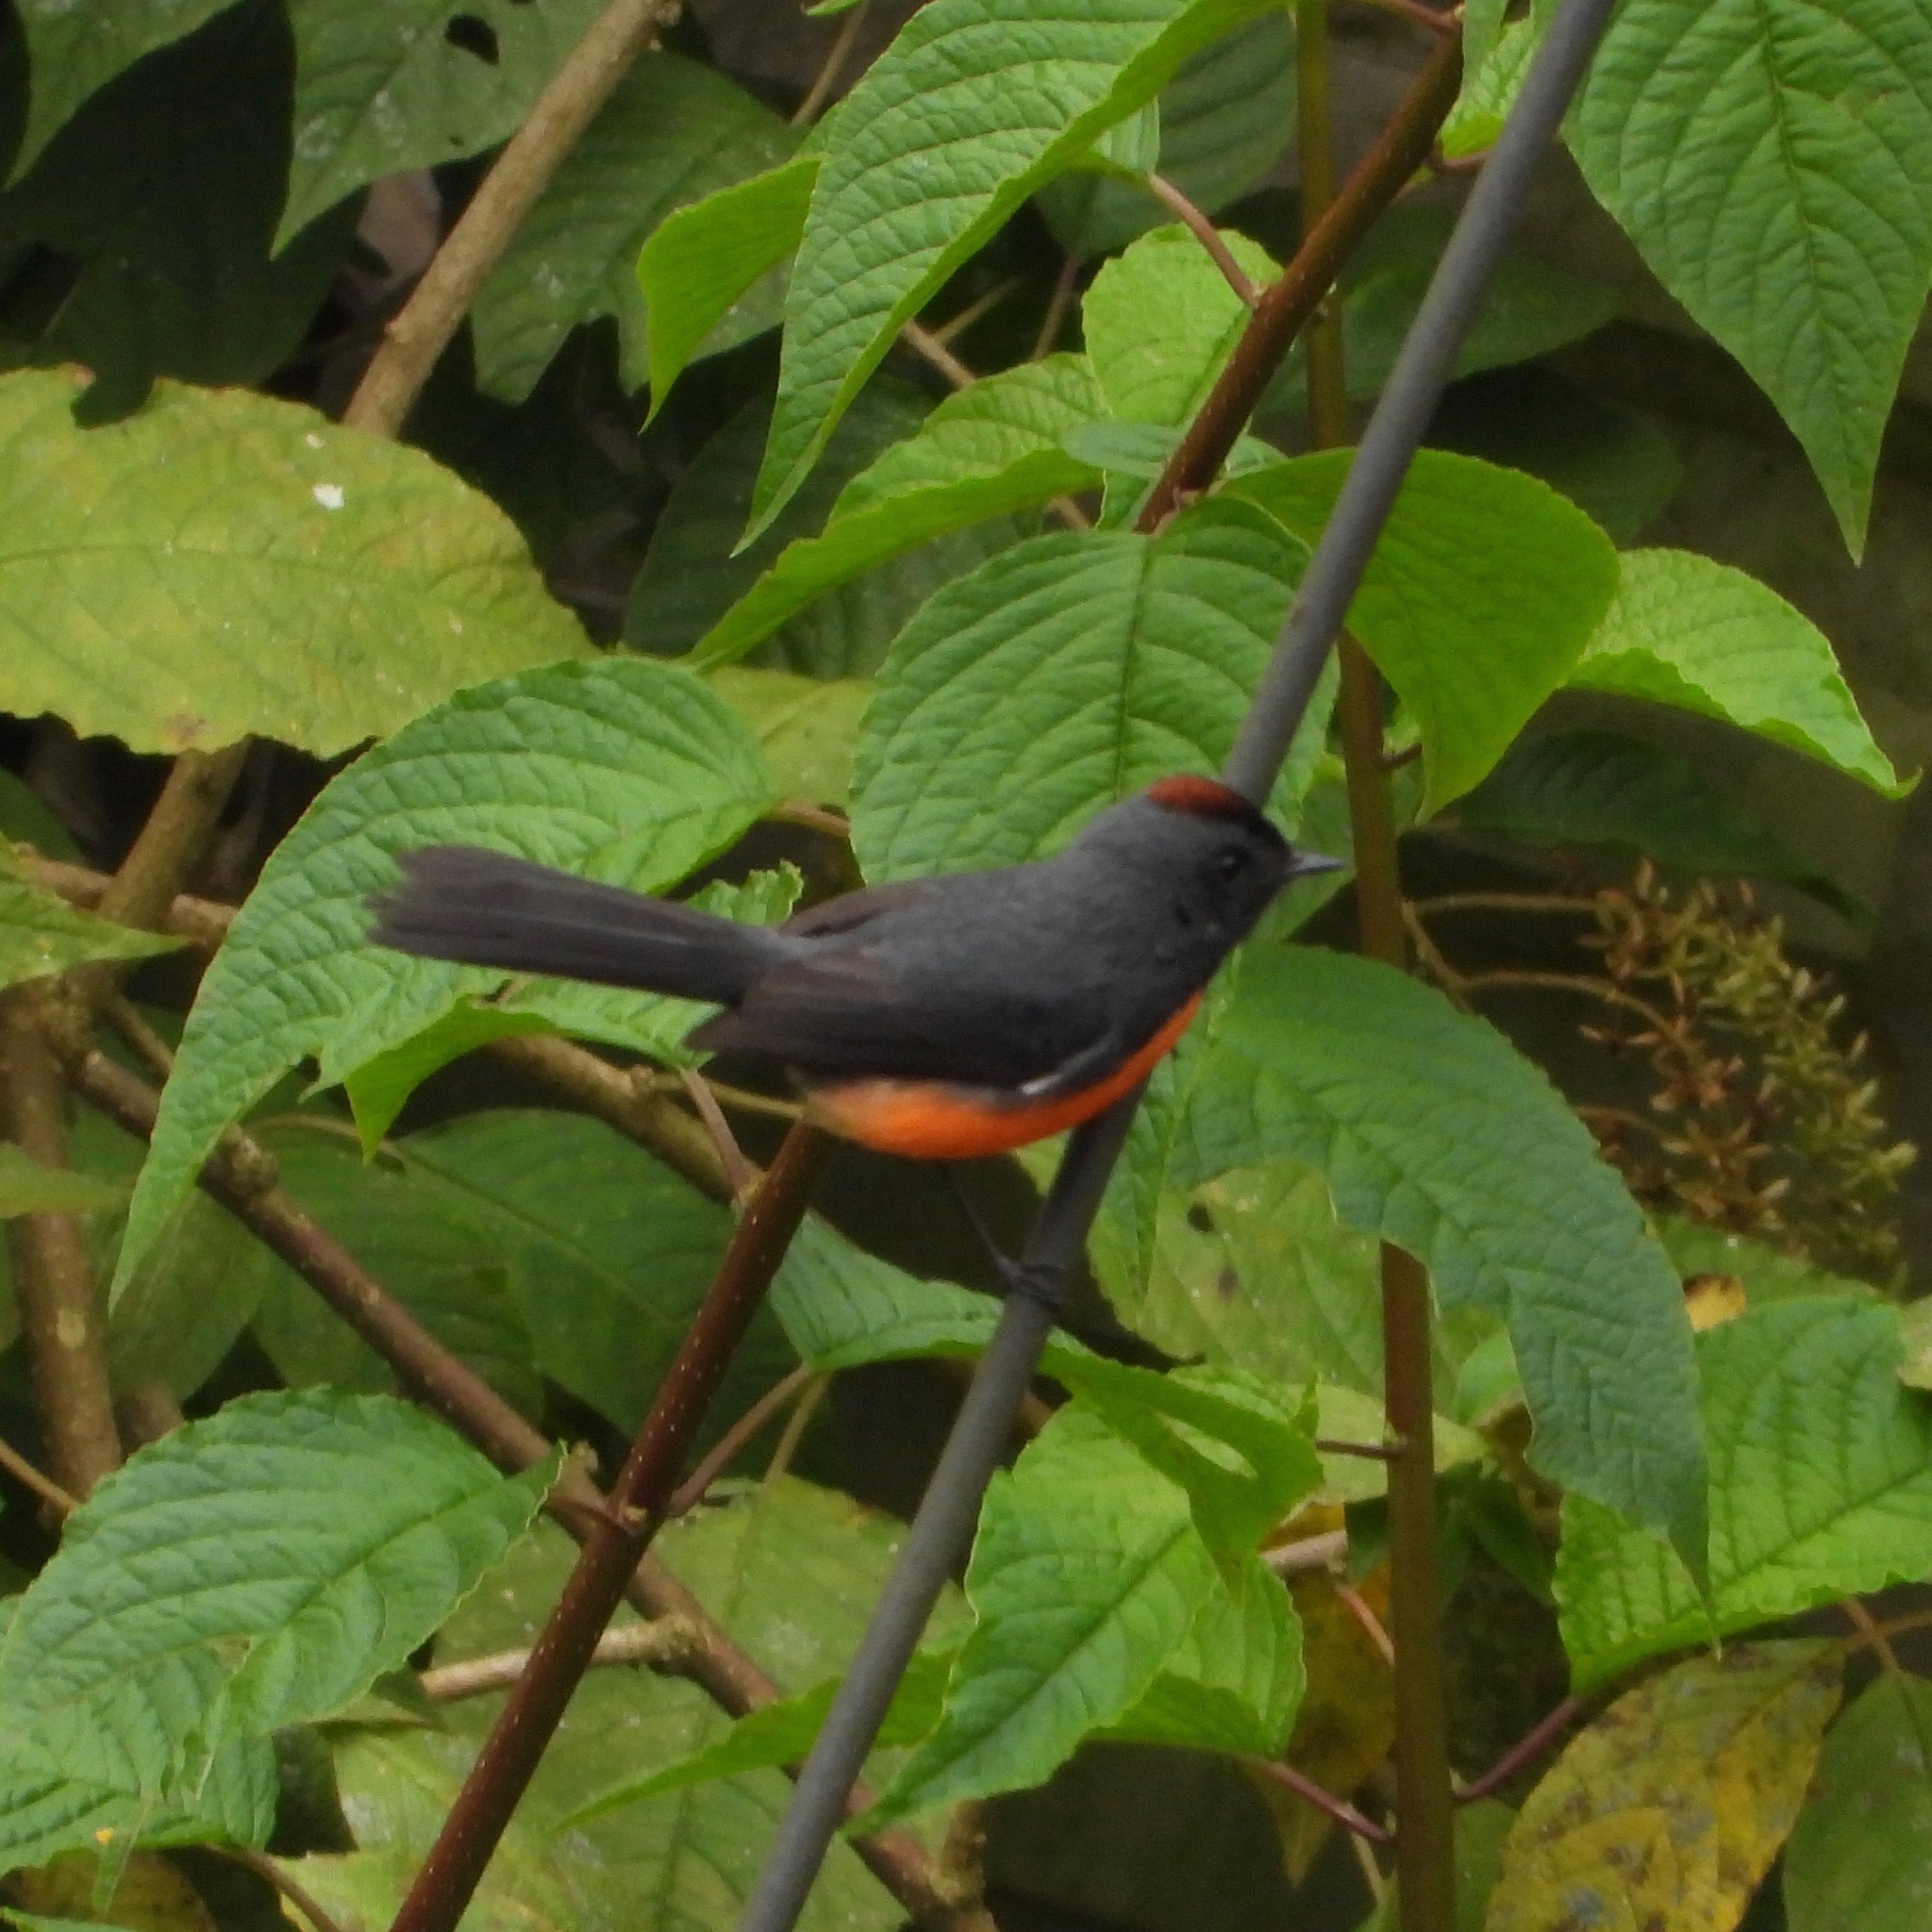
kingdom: Animalia
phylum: Chordata
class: Aves
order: Passeriformes
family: Parulidae
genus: Myioborus
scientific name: Myioborus miniatus
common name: Slate-throated redstart
